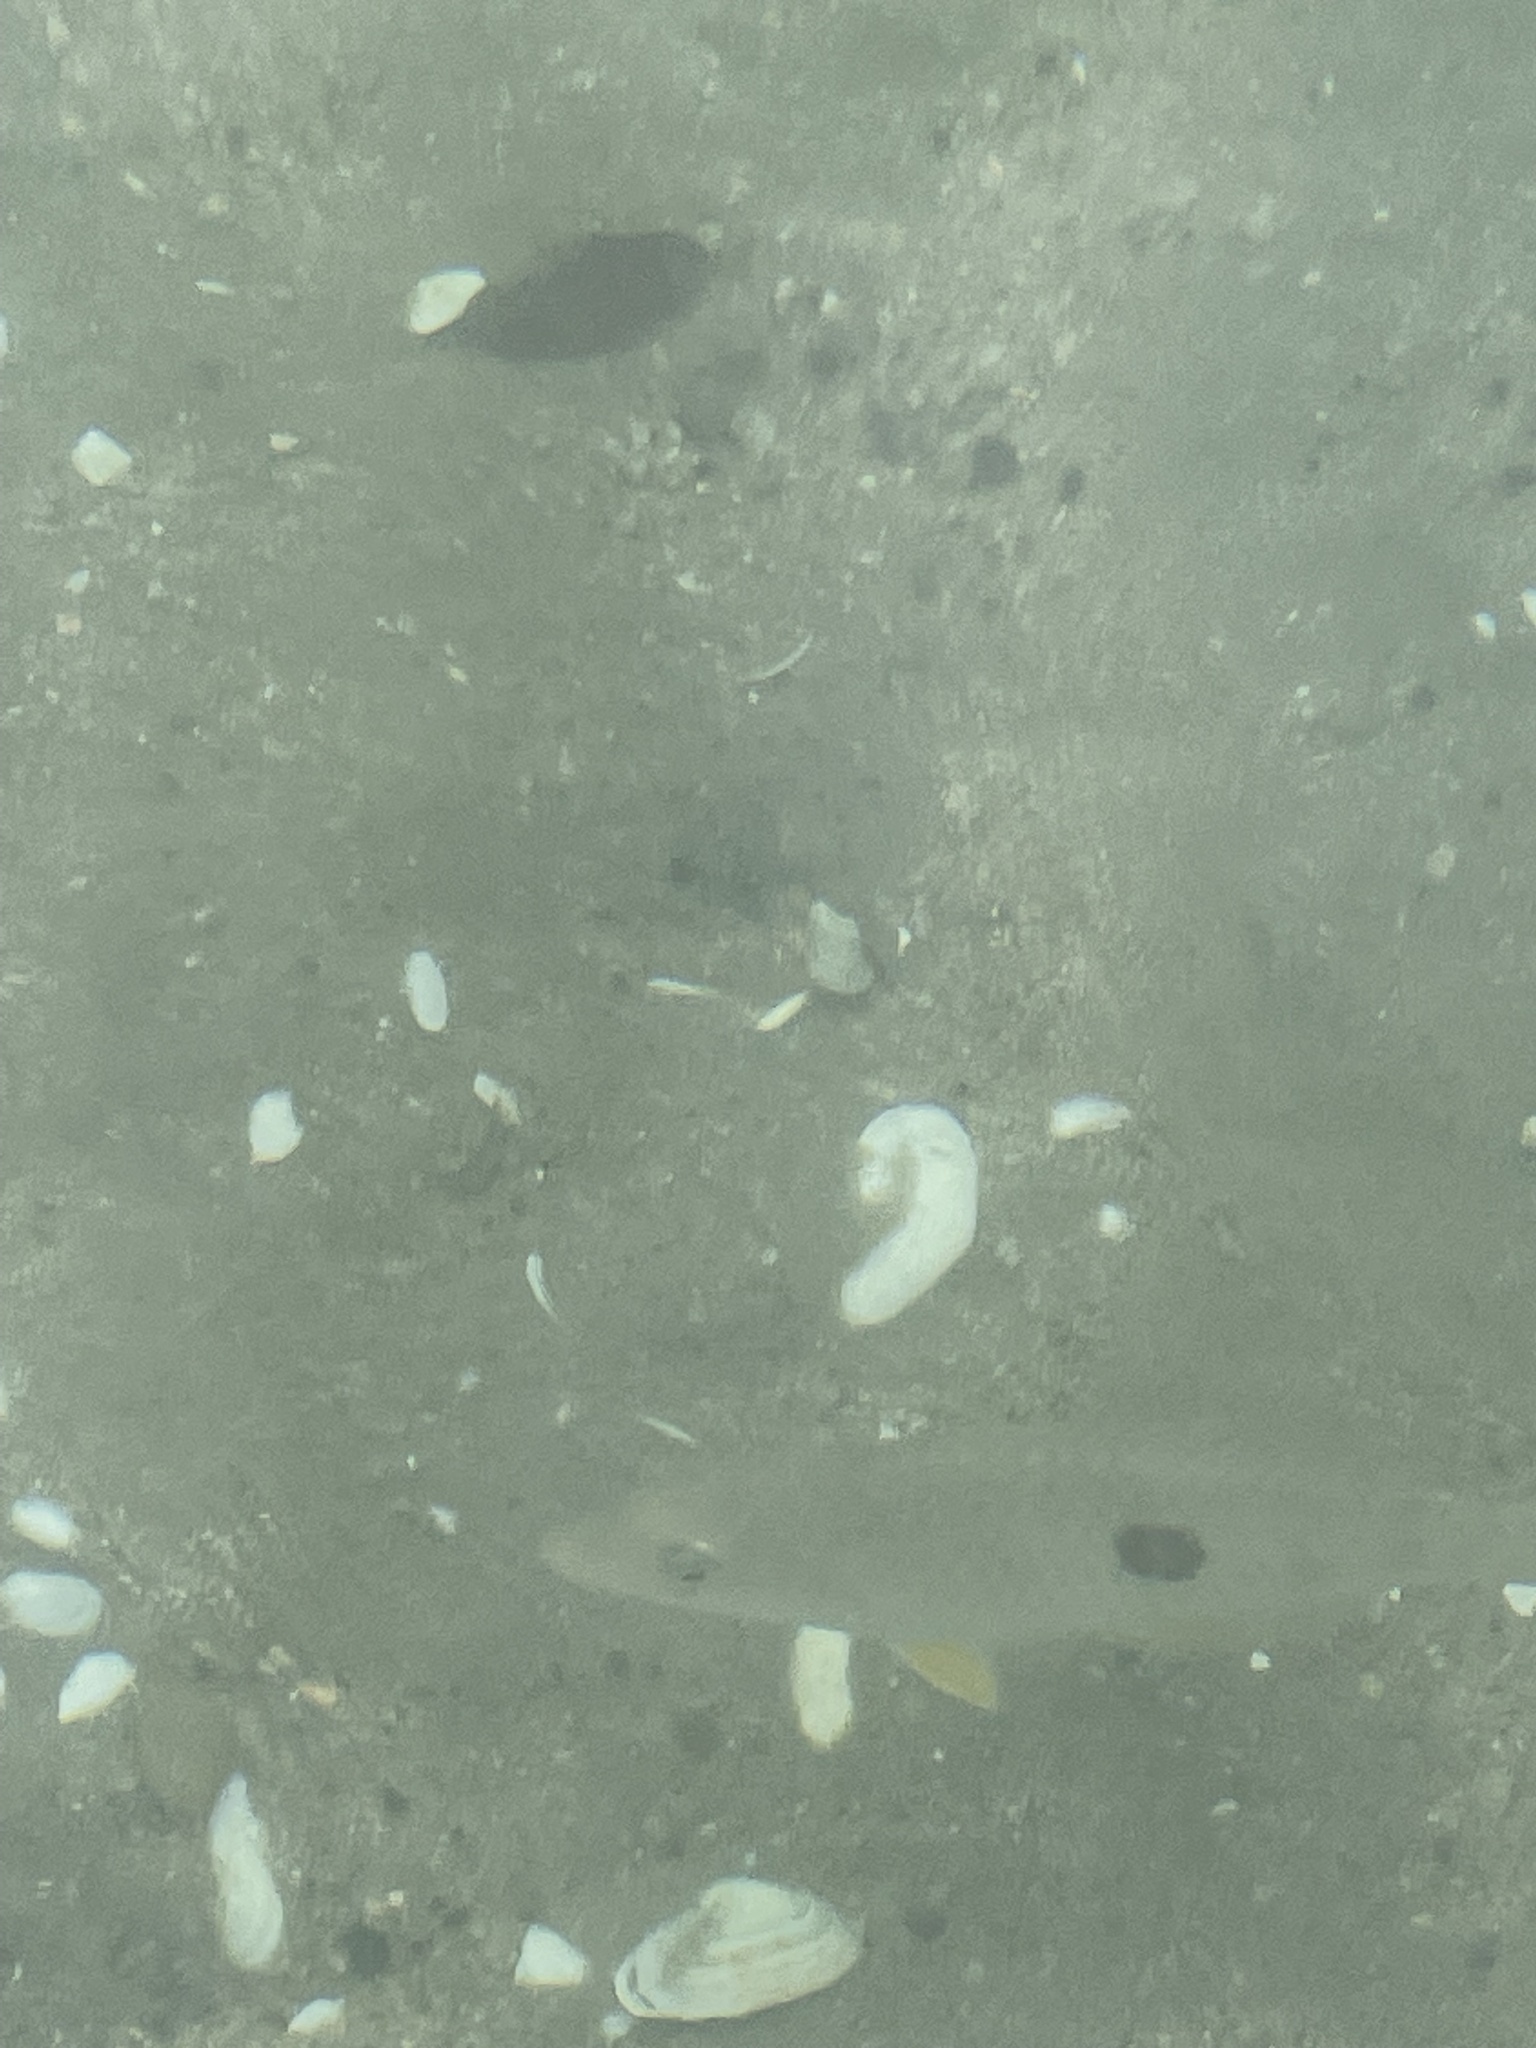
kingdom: Animalia
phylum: Chordata
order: Perciformes
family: Labridae
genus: Notolabrus
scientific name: Notolabrus celidotus
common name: Spotty
